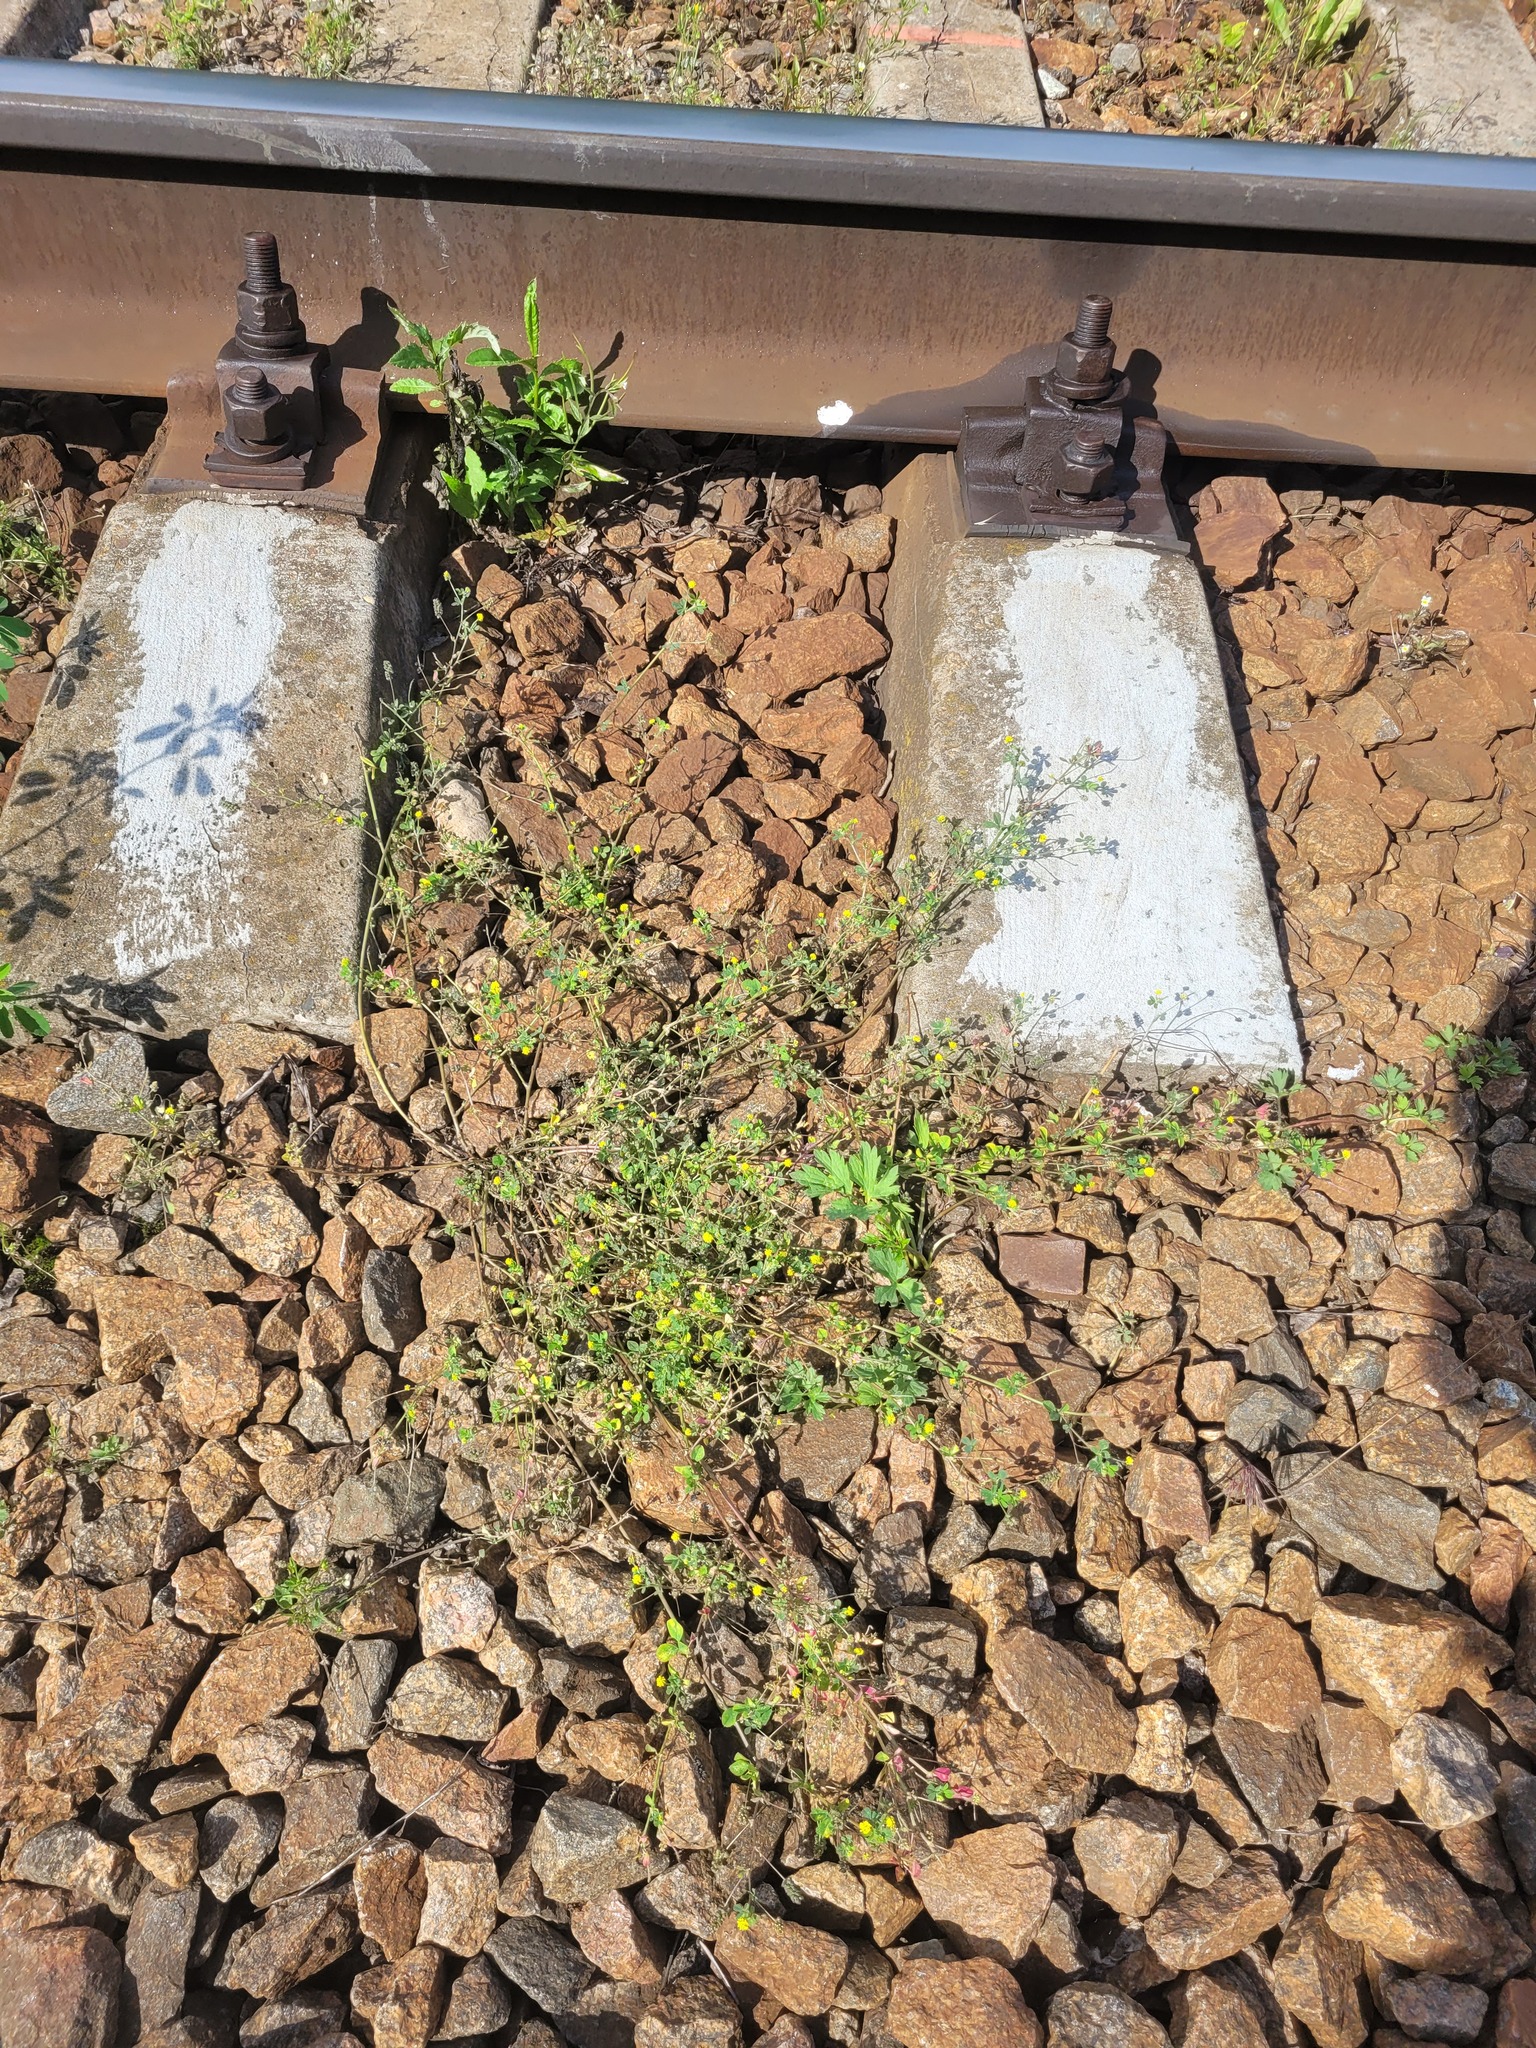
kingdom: Plantae
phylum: Tracheophyta
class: Magnoliopsida
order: Fabales
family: Fabaceae
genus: Medicago
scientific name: Medicago lupulina
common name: Black medick
